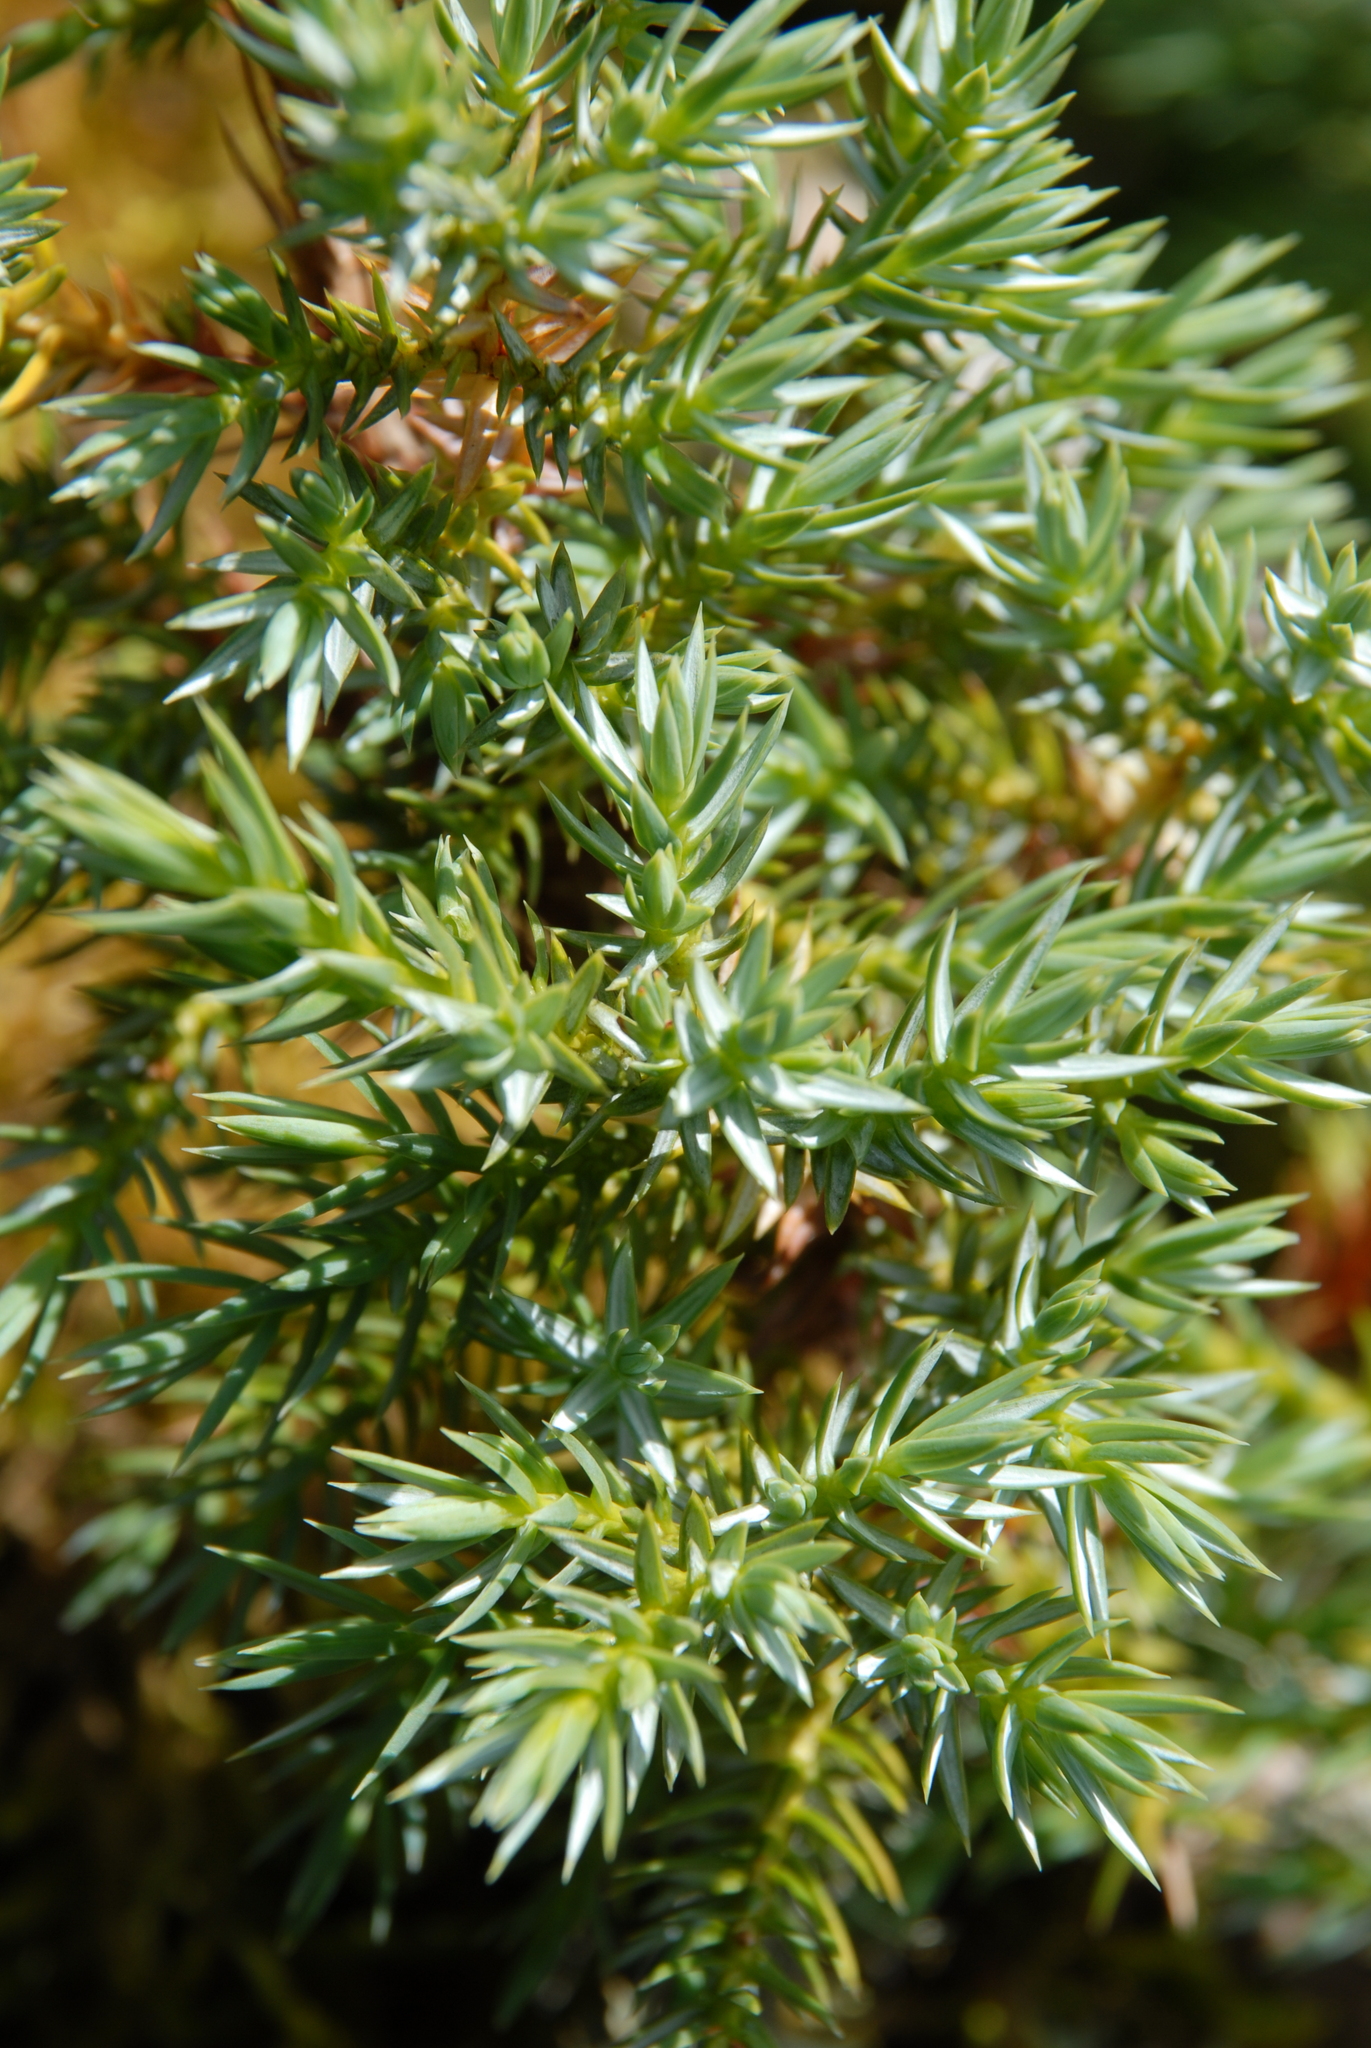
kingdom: Plantae
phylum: Tracheophyta
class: Pinopsida
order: Pinales
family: Cupressaceae
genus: Juniperus
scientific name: Juniperus squamata
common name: Flaky juniper
